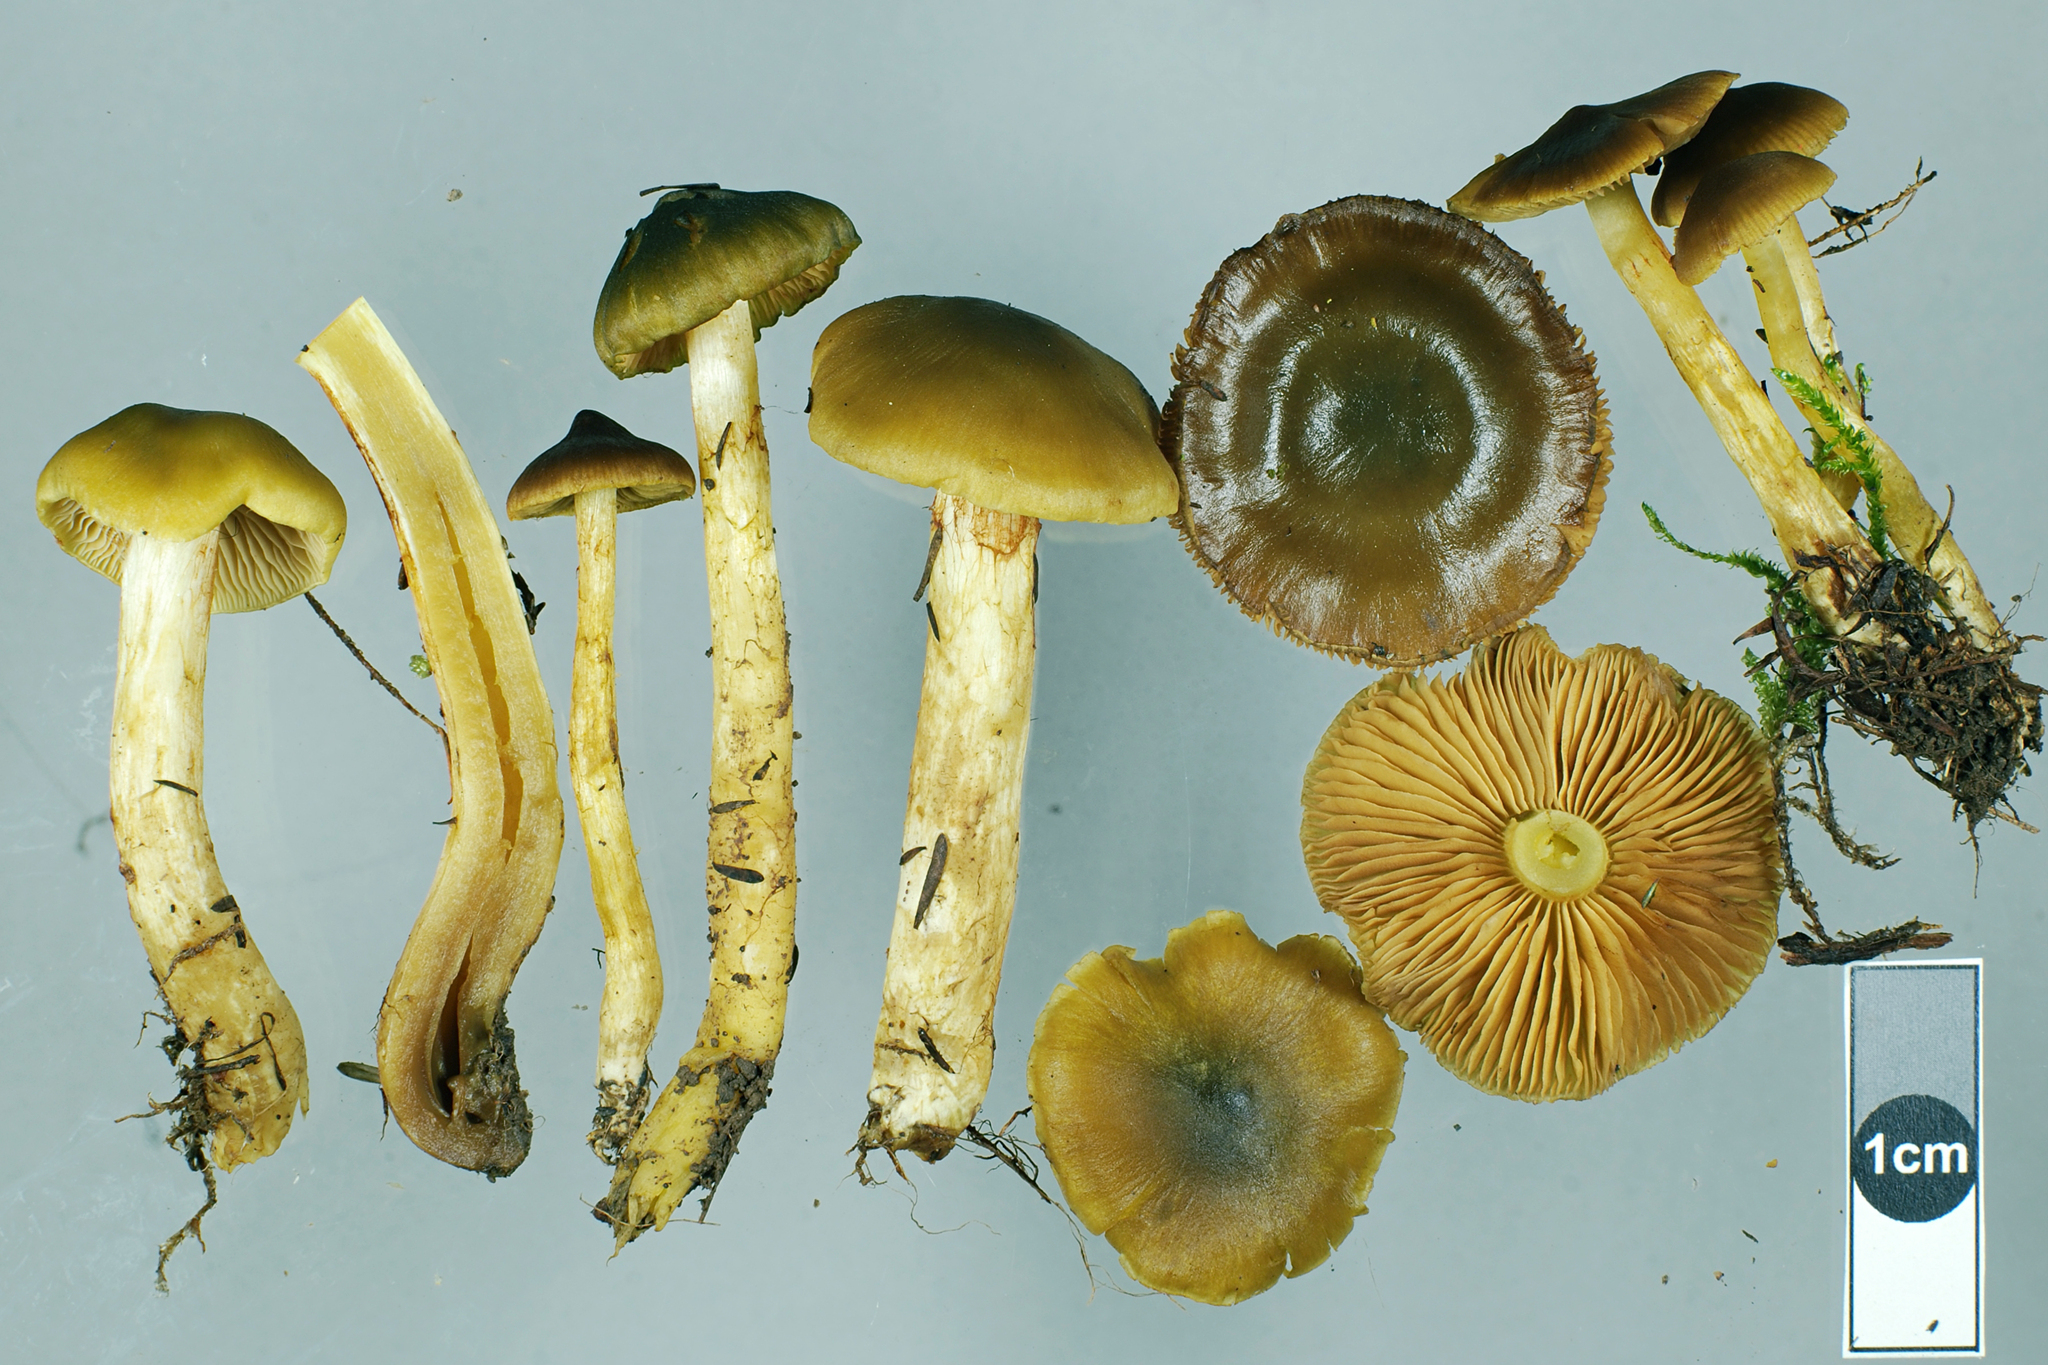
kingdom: Fungi
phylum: Basidiomycota
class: Agaricomycetes
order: Agaricales
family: Cortinariaceae
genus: Cortinarius
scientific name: Cortinarius alienatus
